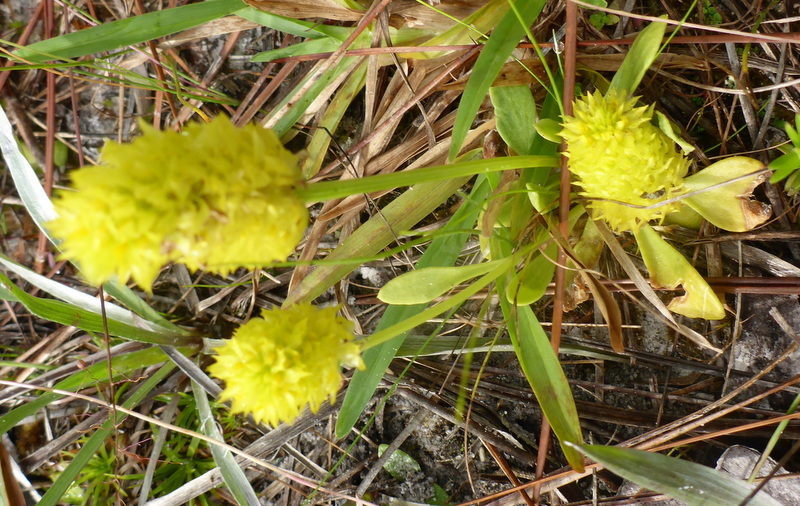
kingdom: Plantae
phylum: Tracheophyta
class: Magnoliopsida
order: Fabales
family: Polygalaceae
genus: Polygala
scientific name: Polygala nana
